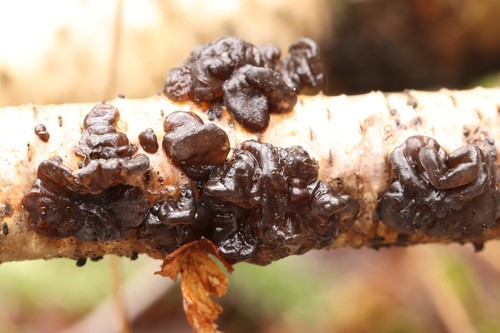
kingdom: Fungi
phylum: Basidiomycota
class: Agaricomycetes
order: Auriculariales
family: Auriculariaceae
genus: Exidia
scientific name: Exidia glandulosa
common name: Witches' butter
